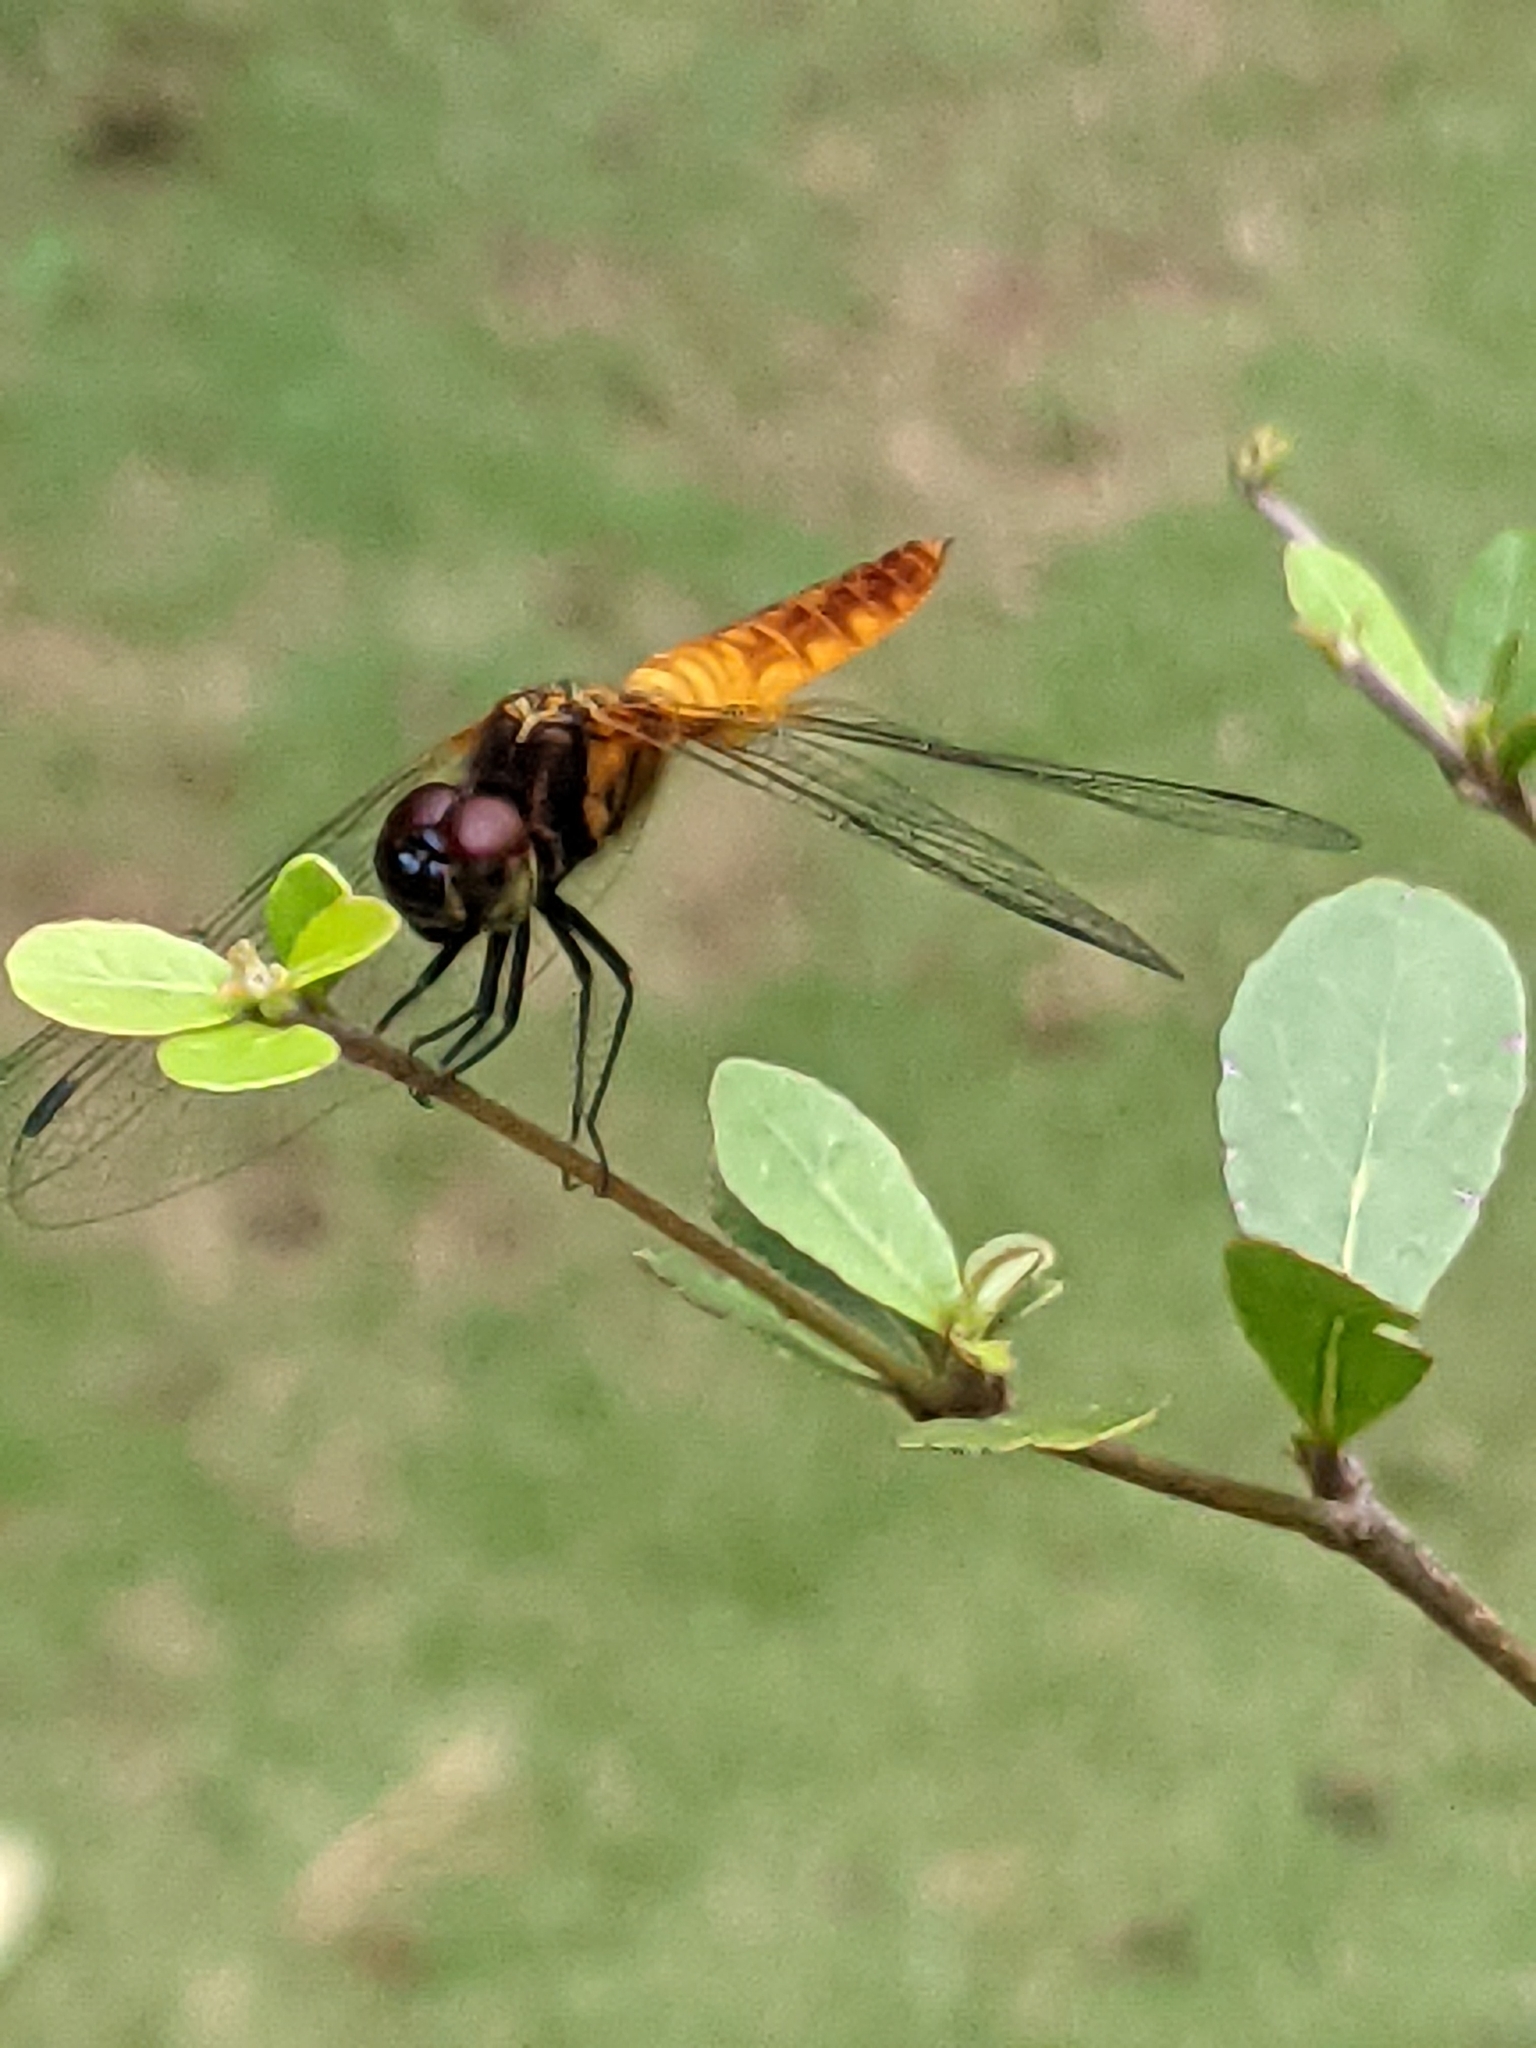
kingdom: Animalia
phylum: Arthropoda
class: Insecta
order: Odonata
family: Libellulidae
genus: Aethriamanta
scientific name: Aethriamanta brevipennis
